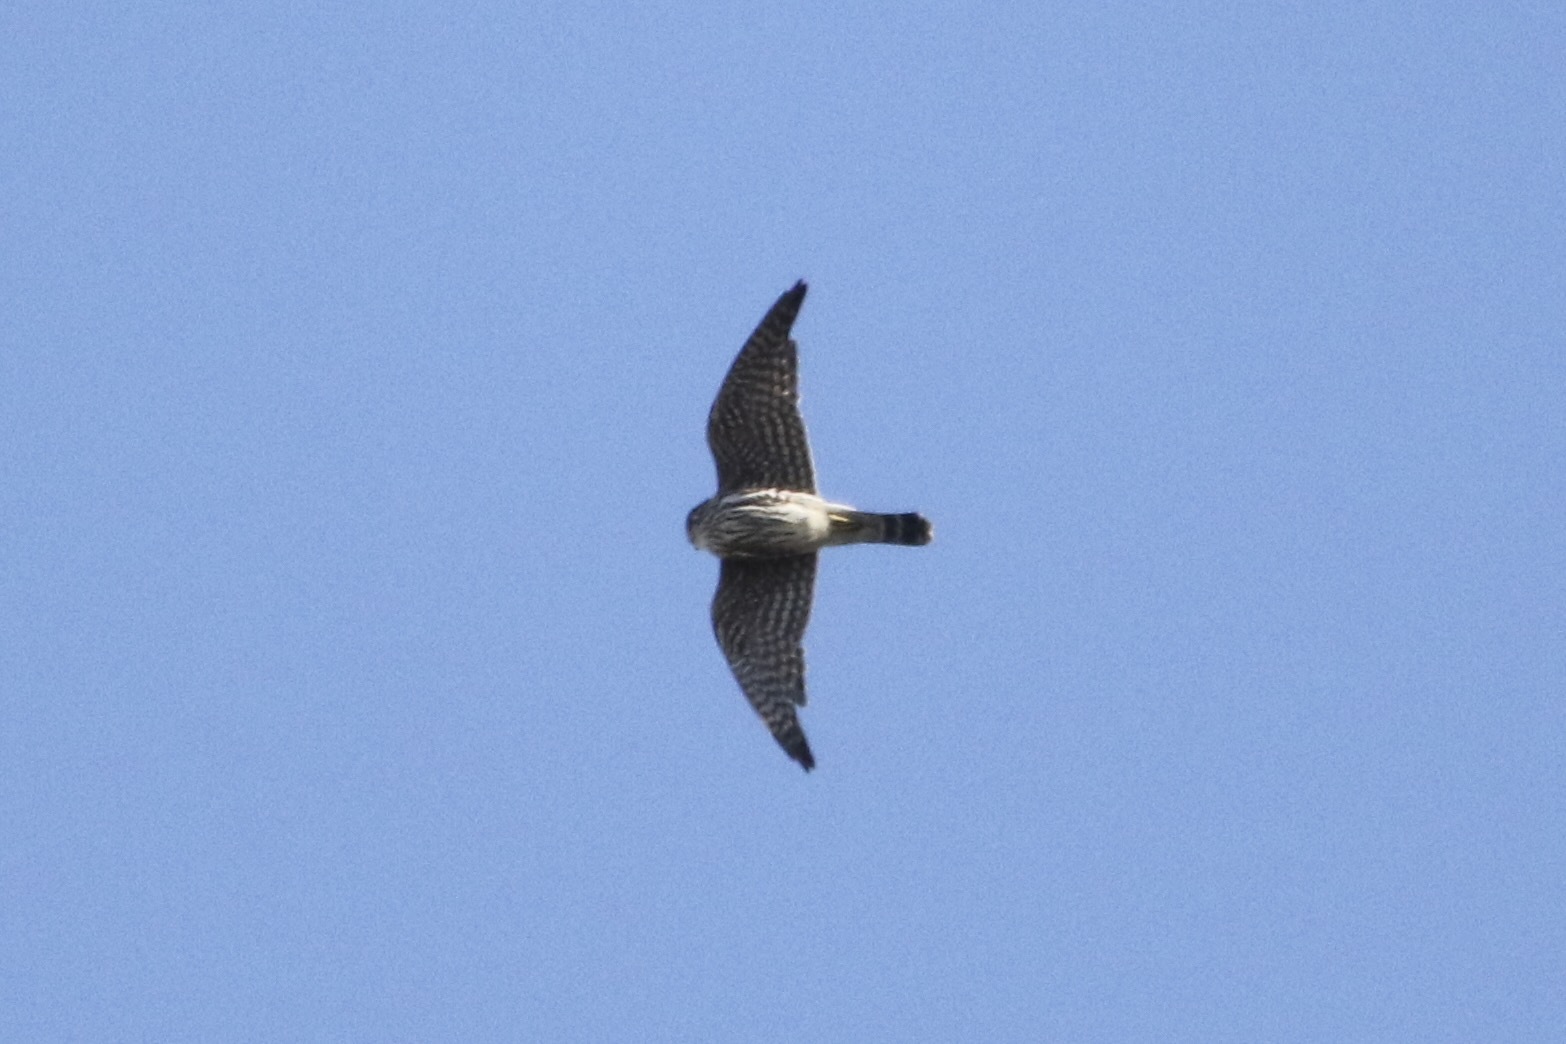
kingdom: Animalia
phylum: Chordata
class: Aves
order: Falconiformes
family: Falconidae
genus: Falco
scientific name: Falco columbarius
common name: Merlin
